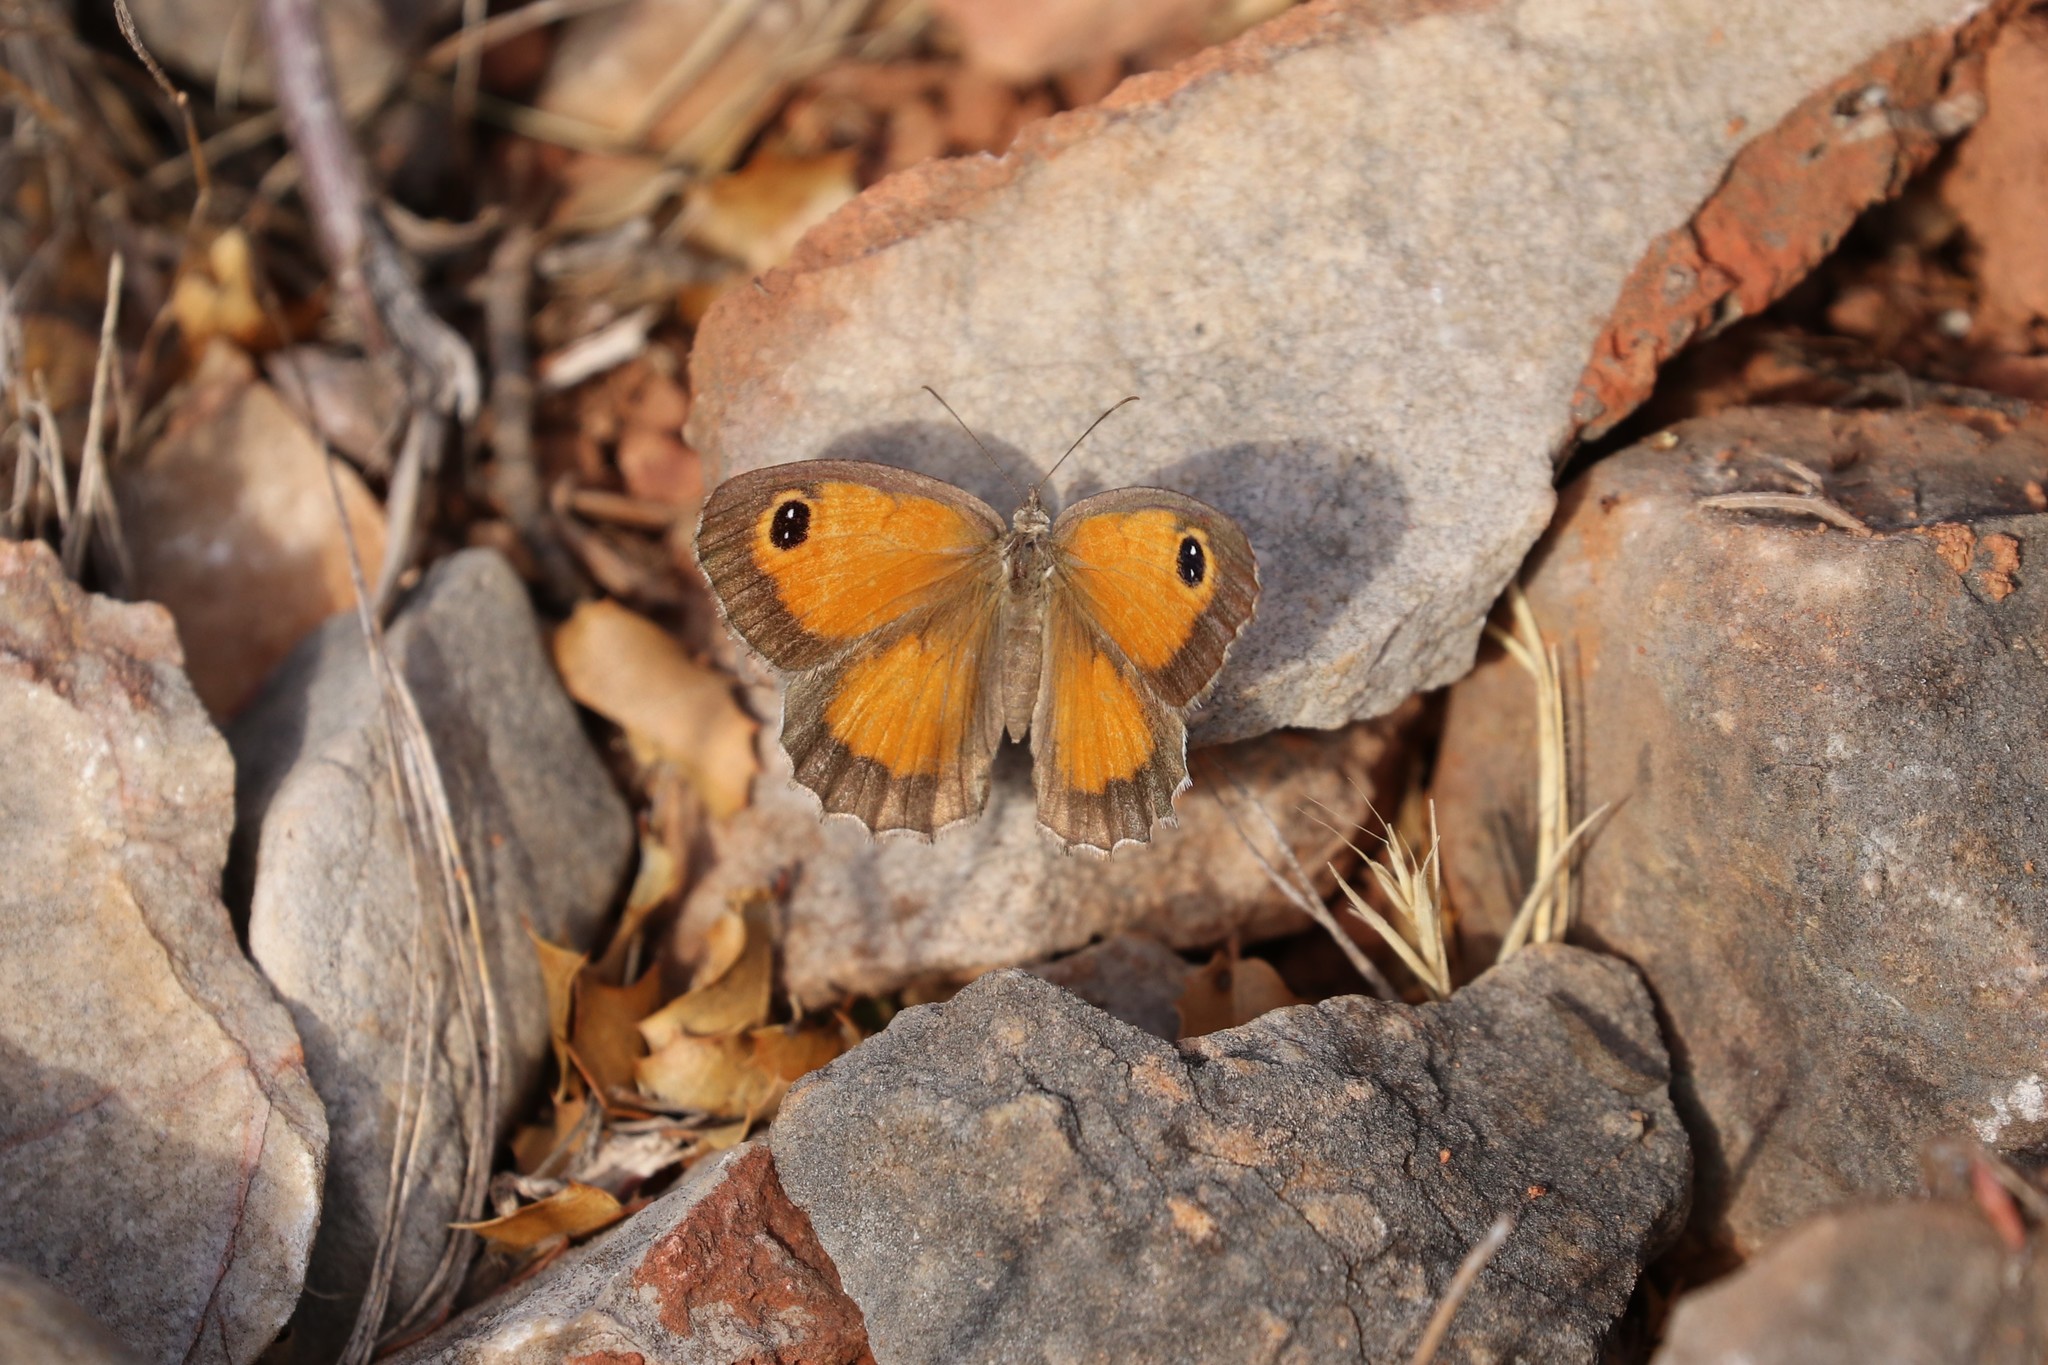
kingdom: Animalia
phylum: Arthropoda
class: Insecta
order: Lepidoptera
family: Nymphalidae
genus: Pyronia
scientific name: Pyronia cecilia
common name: Southern gatekeeper
